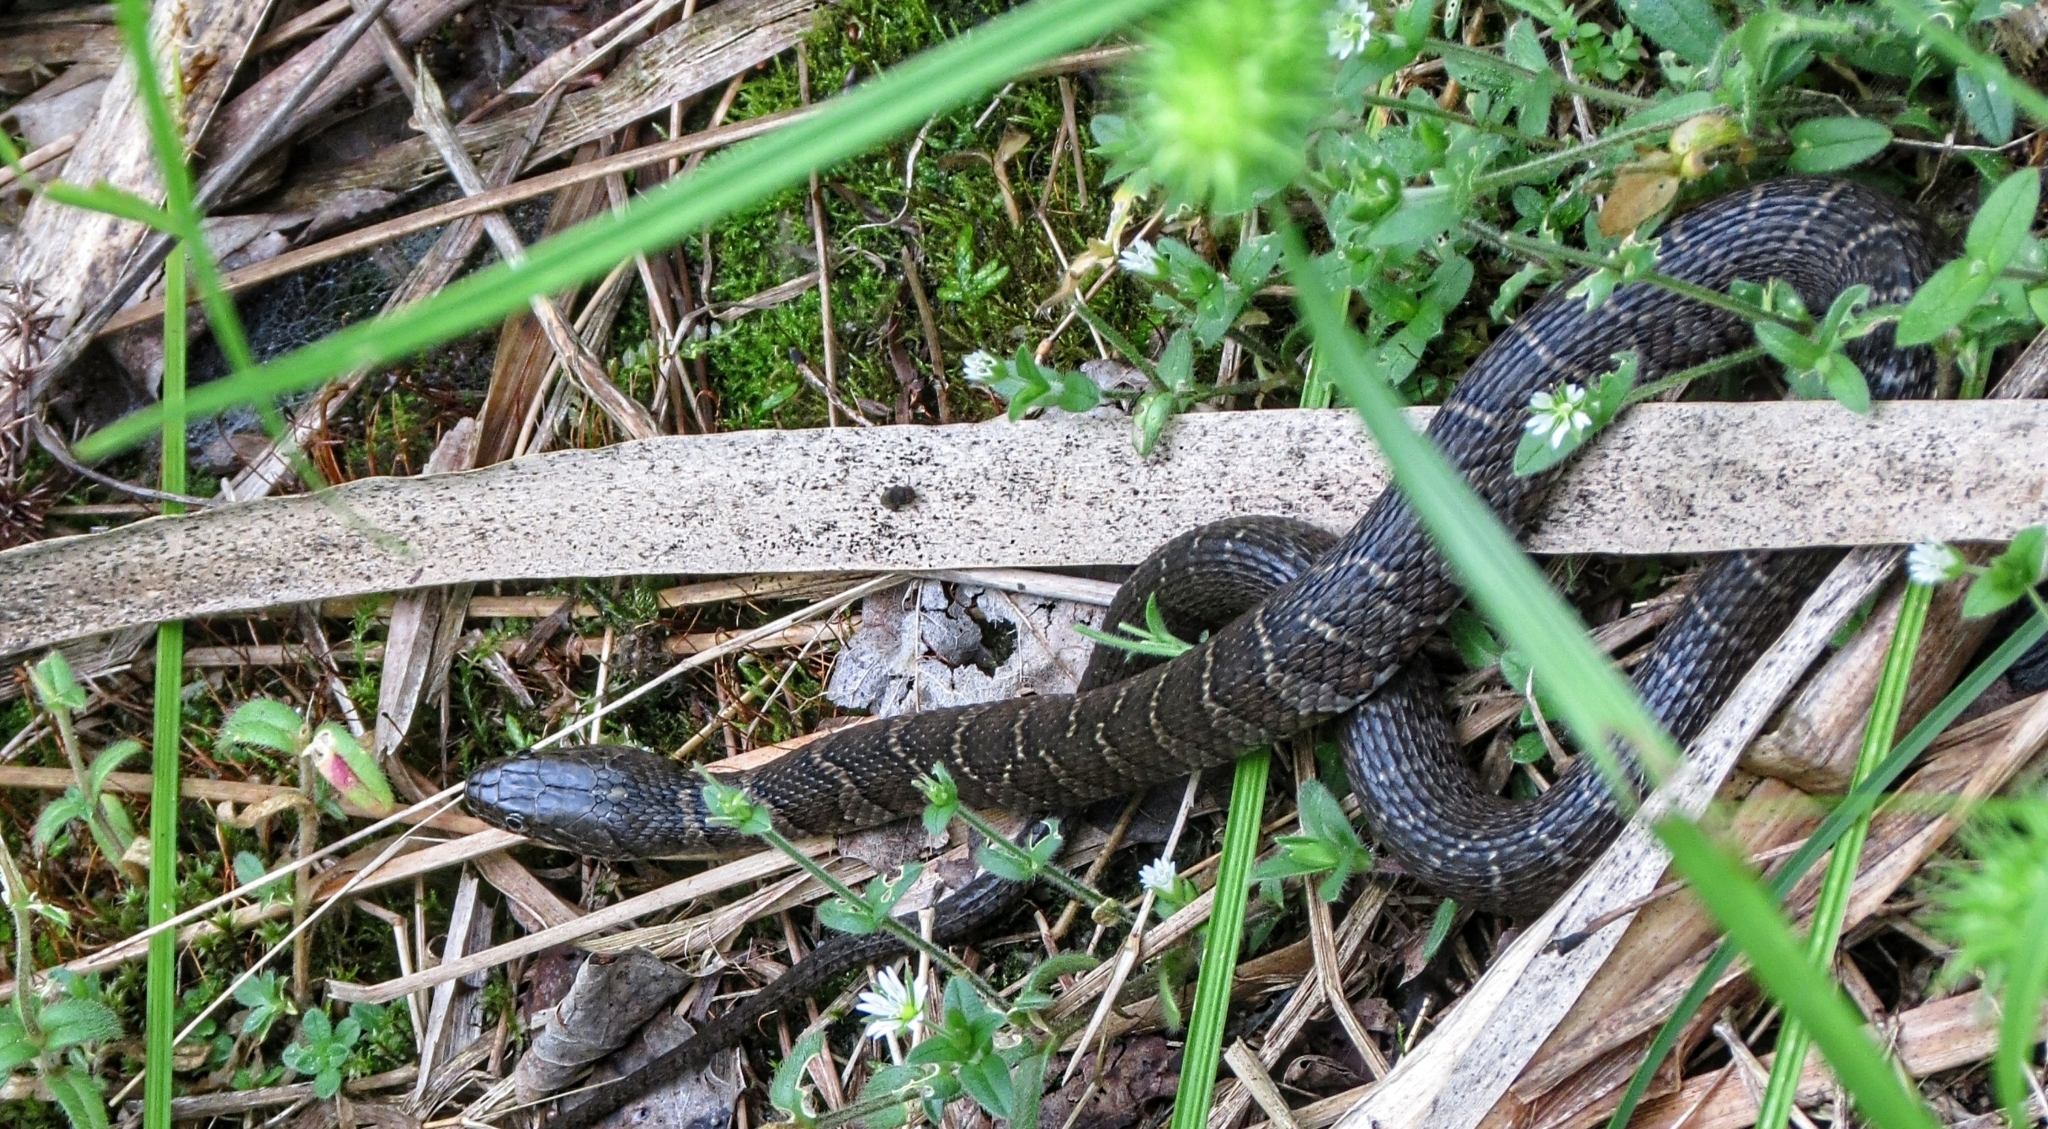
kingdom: Animalia
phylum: Chordata
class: Squamata
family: Colubridae
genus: Nerodia
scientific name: Nerodia sipedon
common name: Northern water snake
